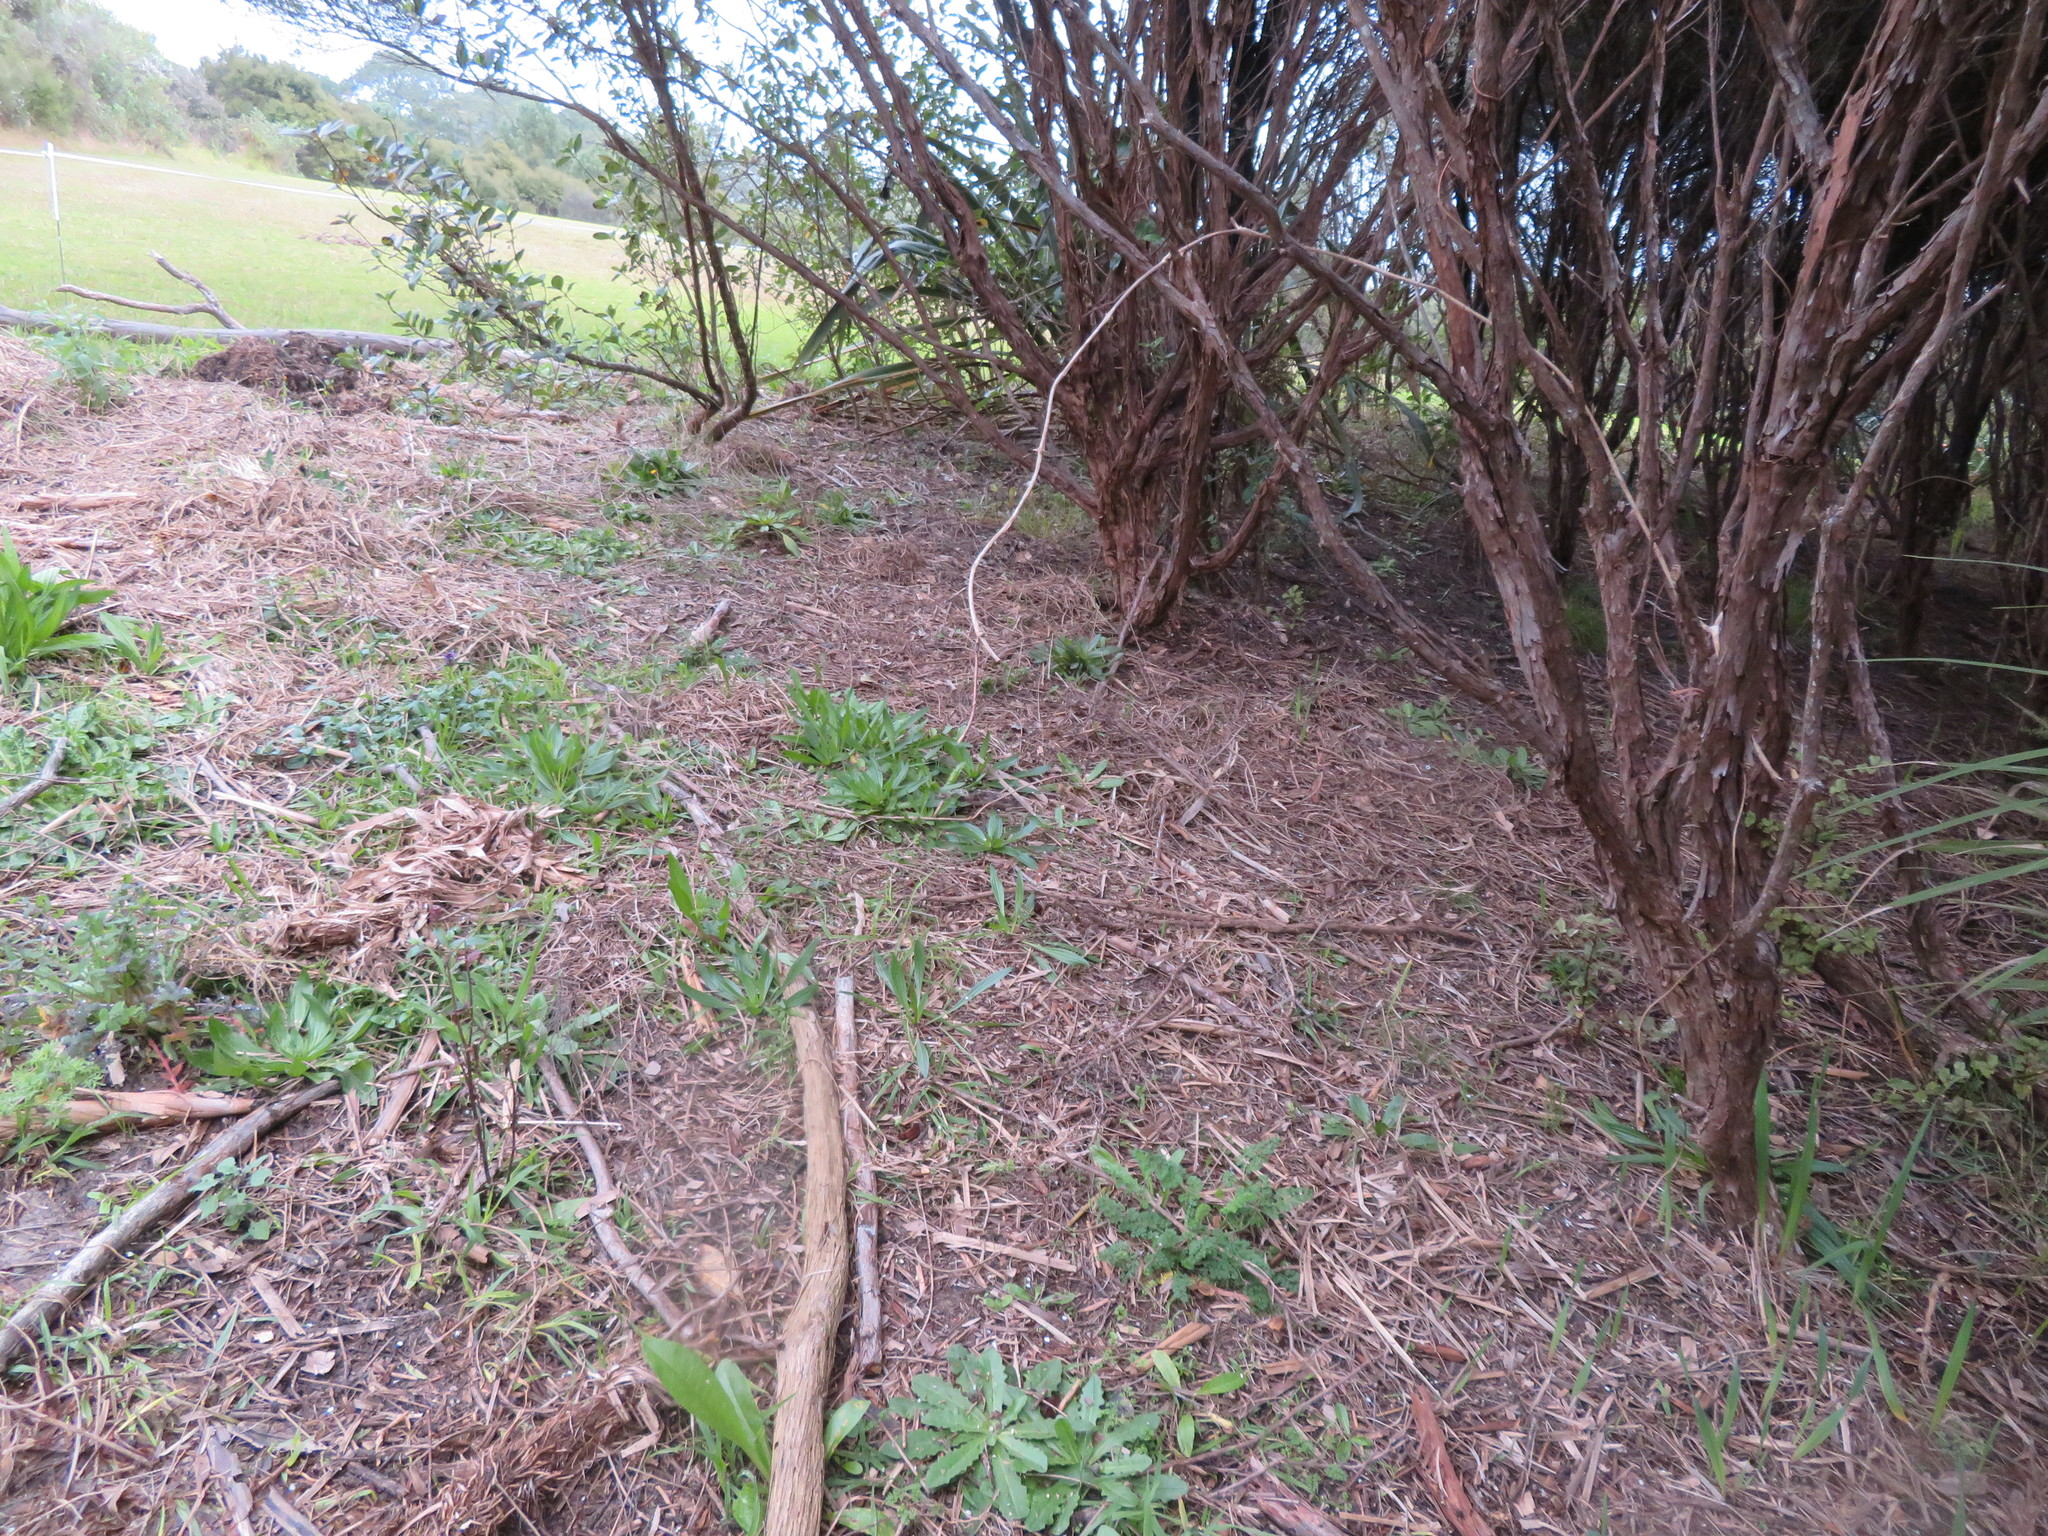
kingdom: Plantae
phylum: Tracheophyta
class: Magnoliopsida
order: Asterales
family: Asteraceae
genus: Hypochaeris
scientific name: Hypochaeris radicata
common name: Flatweed
